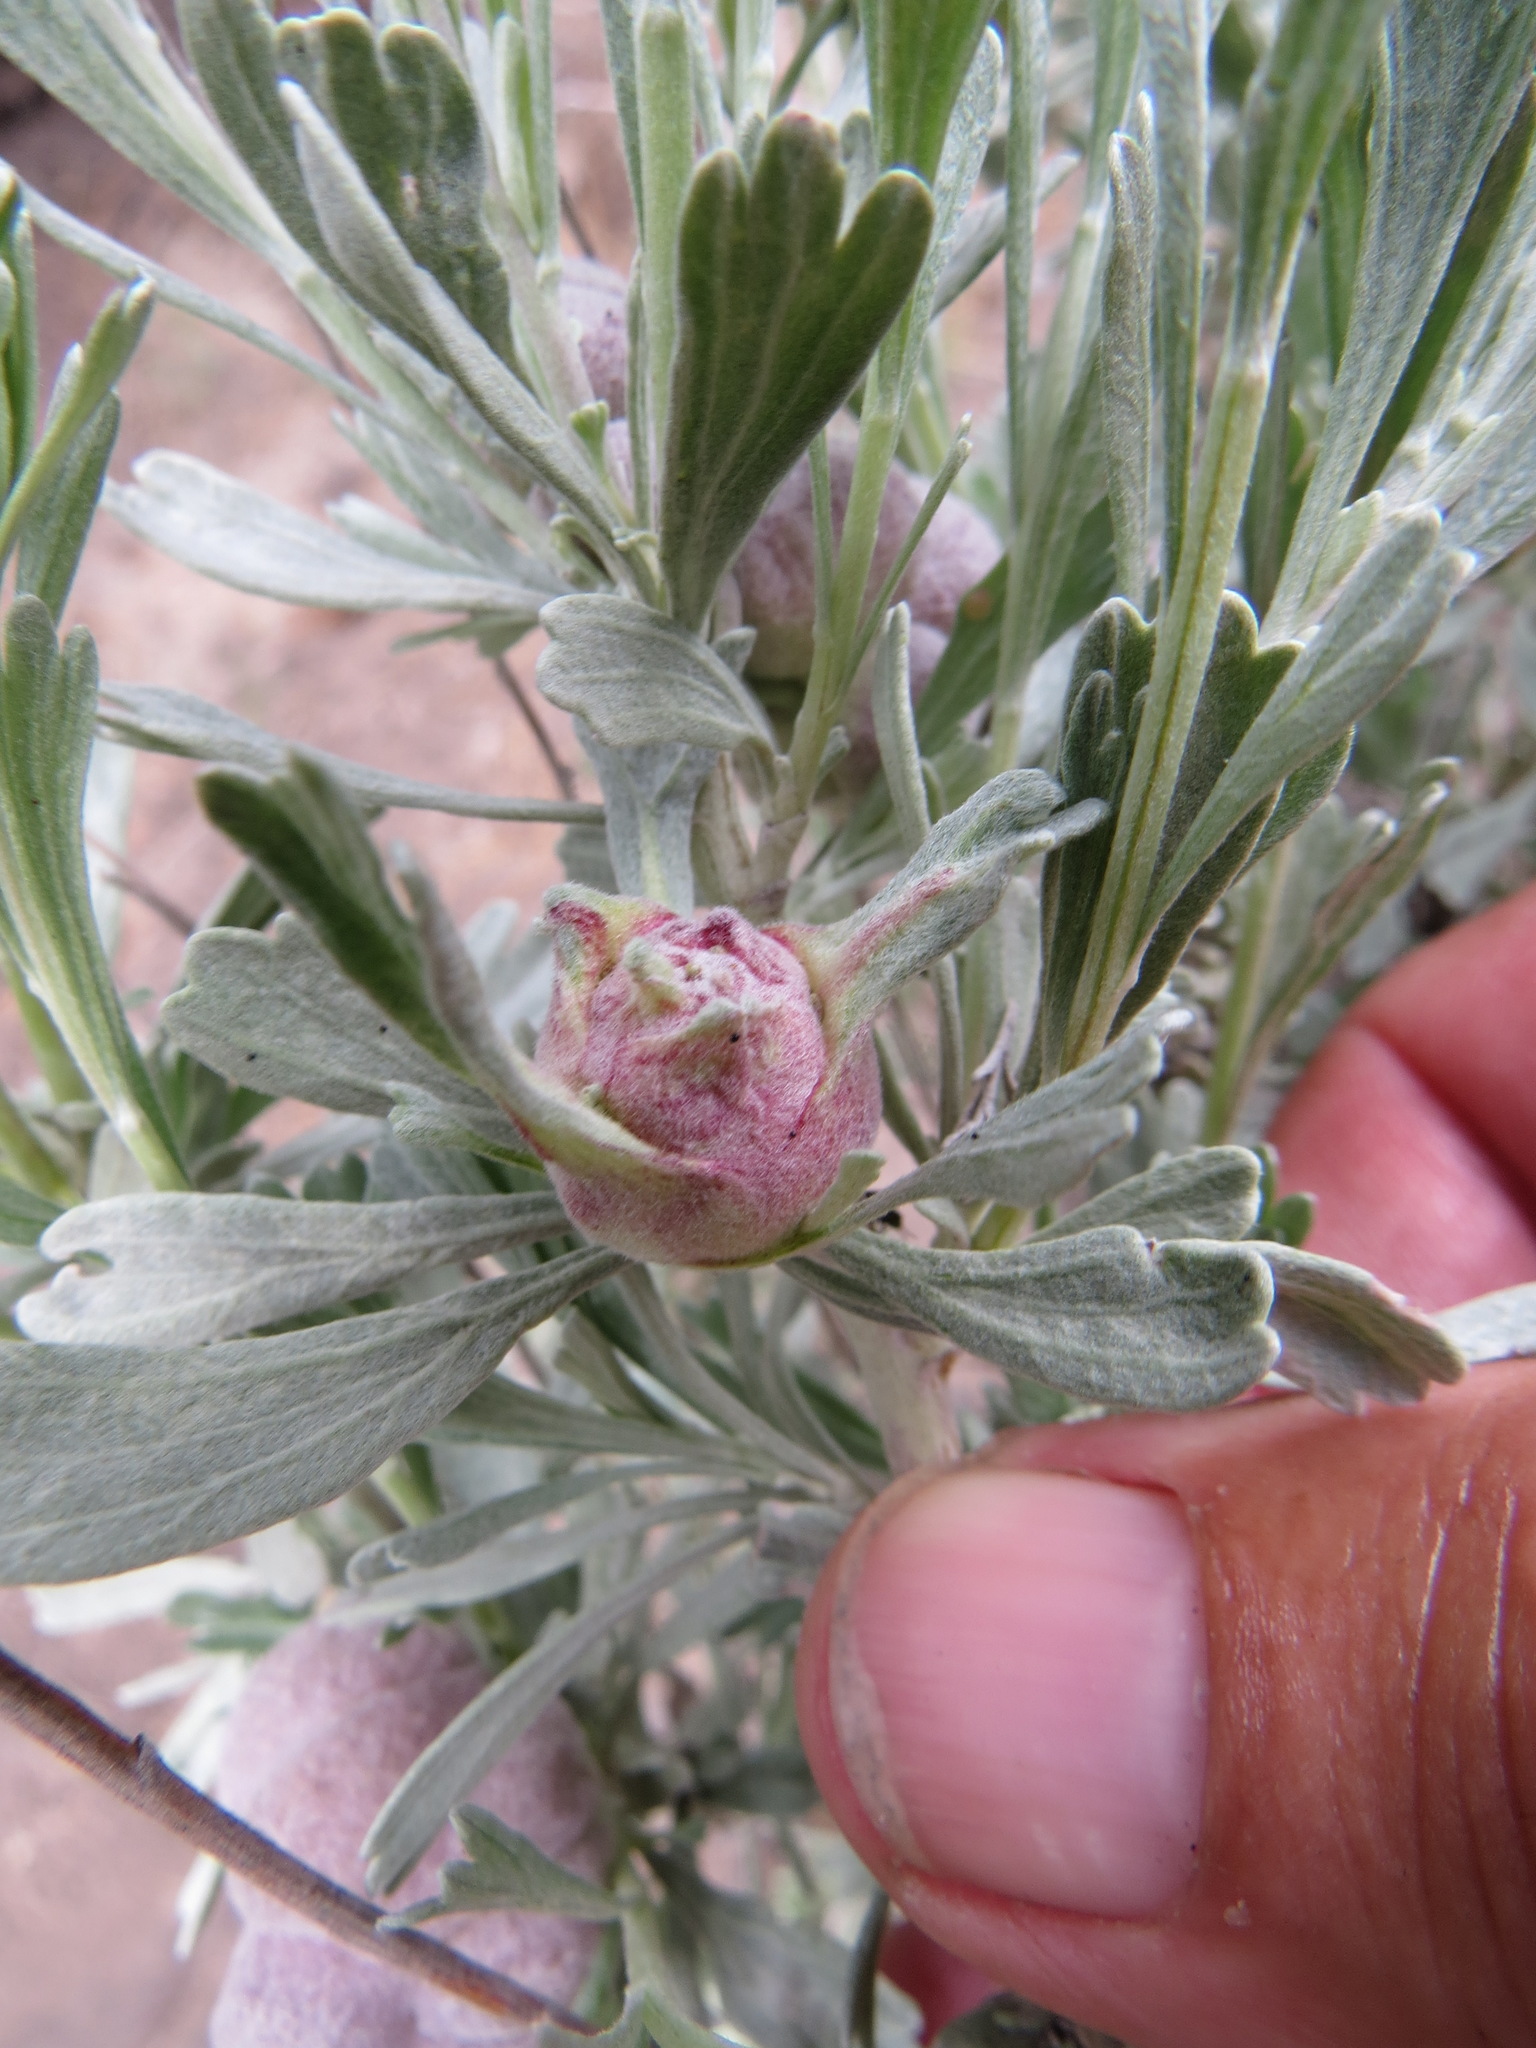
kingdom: Animalia
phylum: Arthropoda
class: Insecta
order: Diptera
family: Tephritidae
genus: Eutreta
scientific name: Eutreta diana
